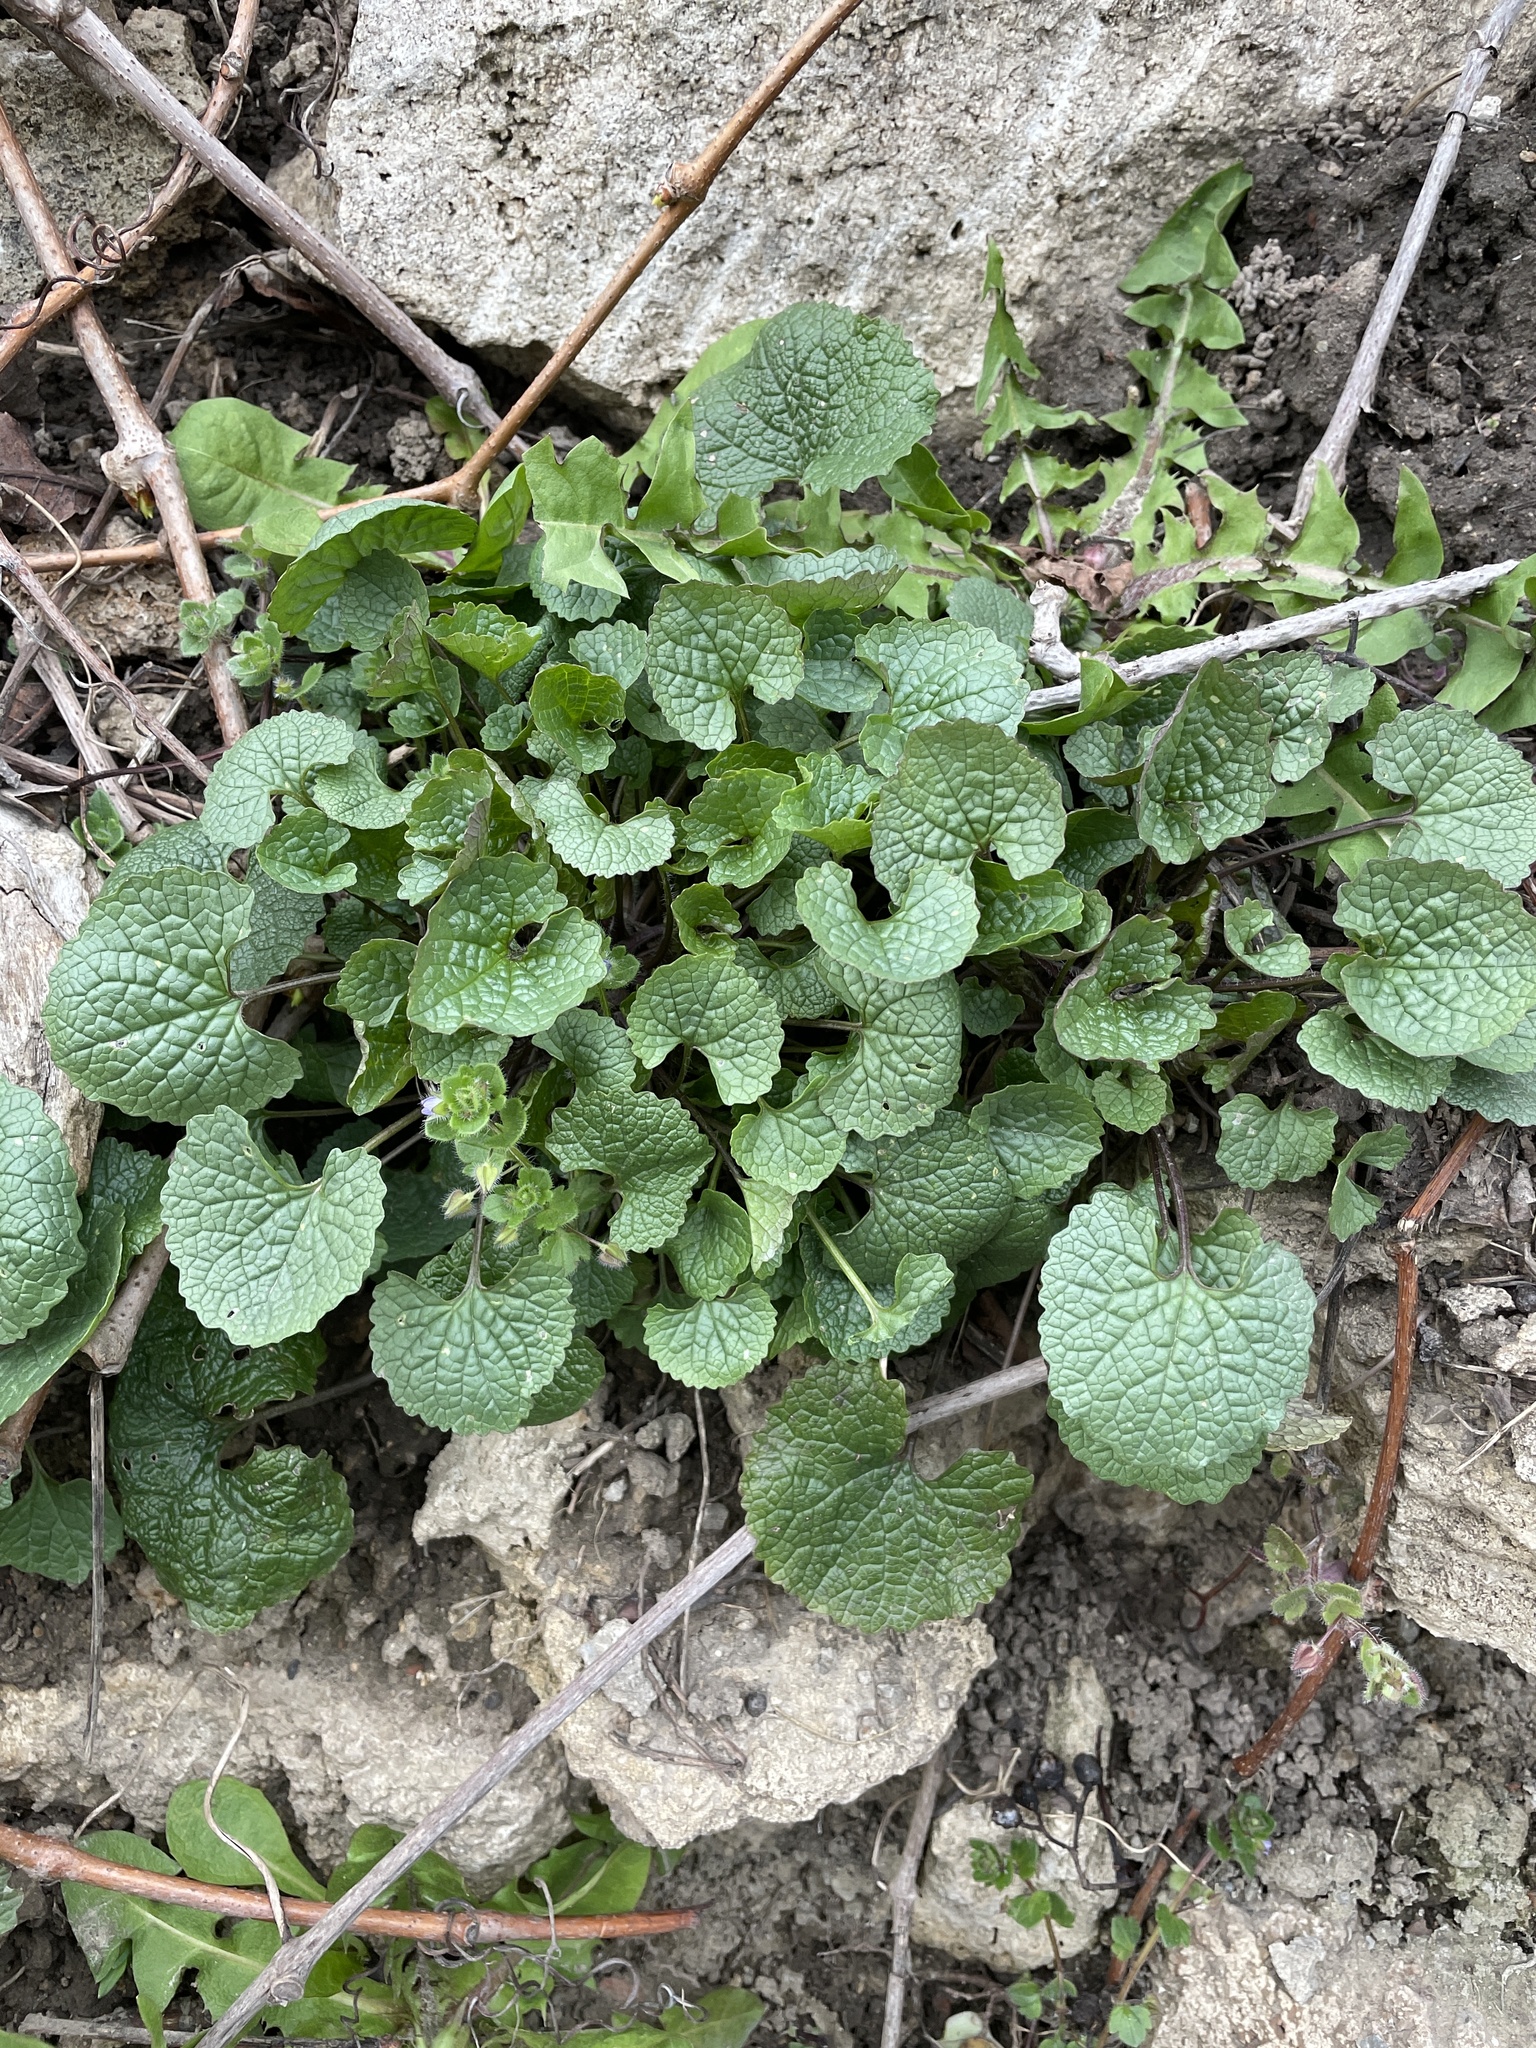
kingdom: Plantae
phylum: Tracheophyta
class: Magnoliopsida
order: Brassicales
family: Brassicaceae
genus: Alliaria
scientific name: Alliaria petiolata
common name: Garlic mustard
